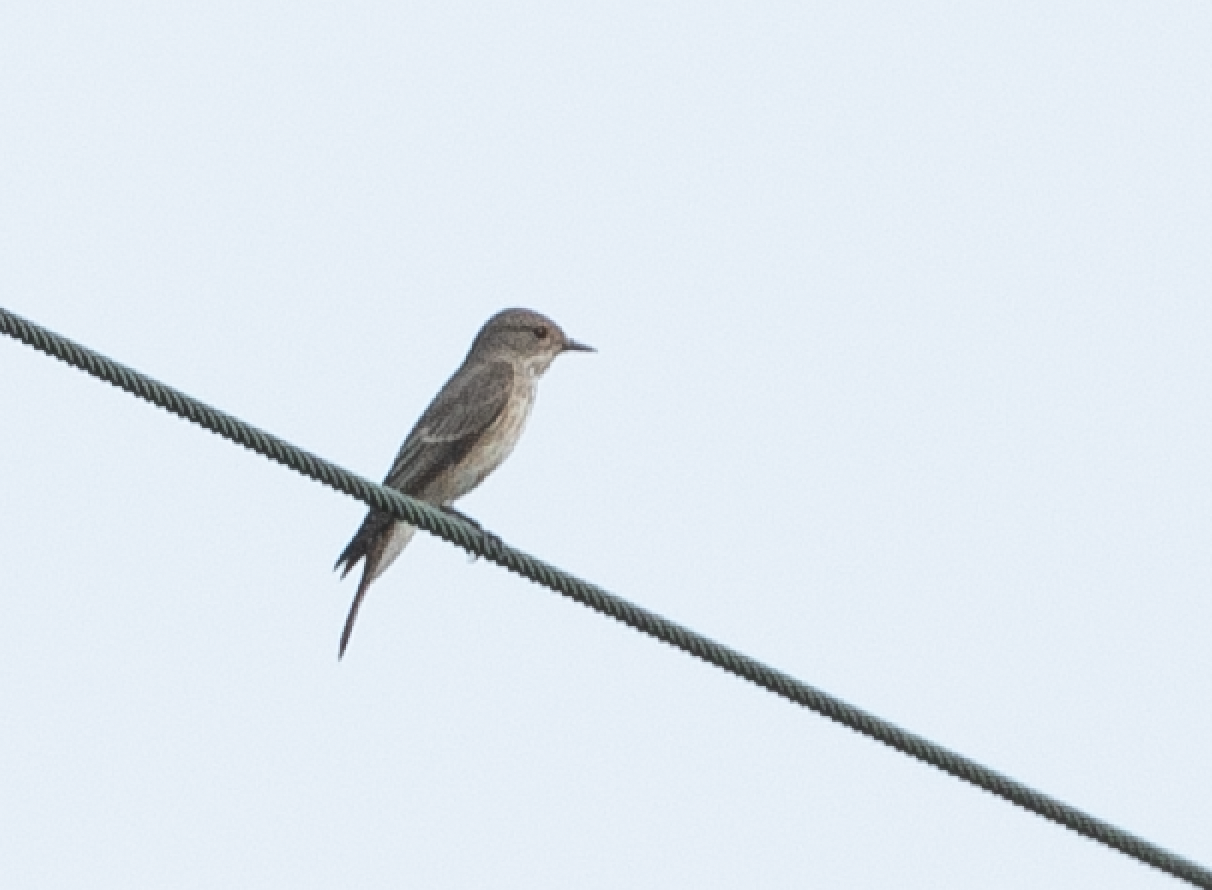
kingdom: Animalia
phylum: Chordata
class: Aves
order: Passeriformes
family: Muscicapidae
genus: Muscicapa
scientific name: Muscicapa striata
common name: Spotted flycatcher
